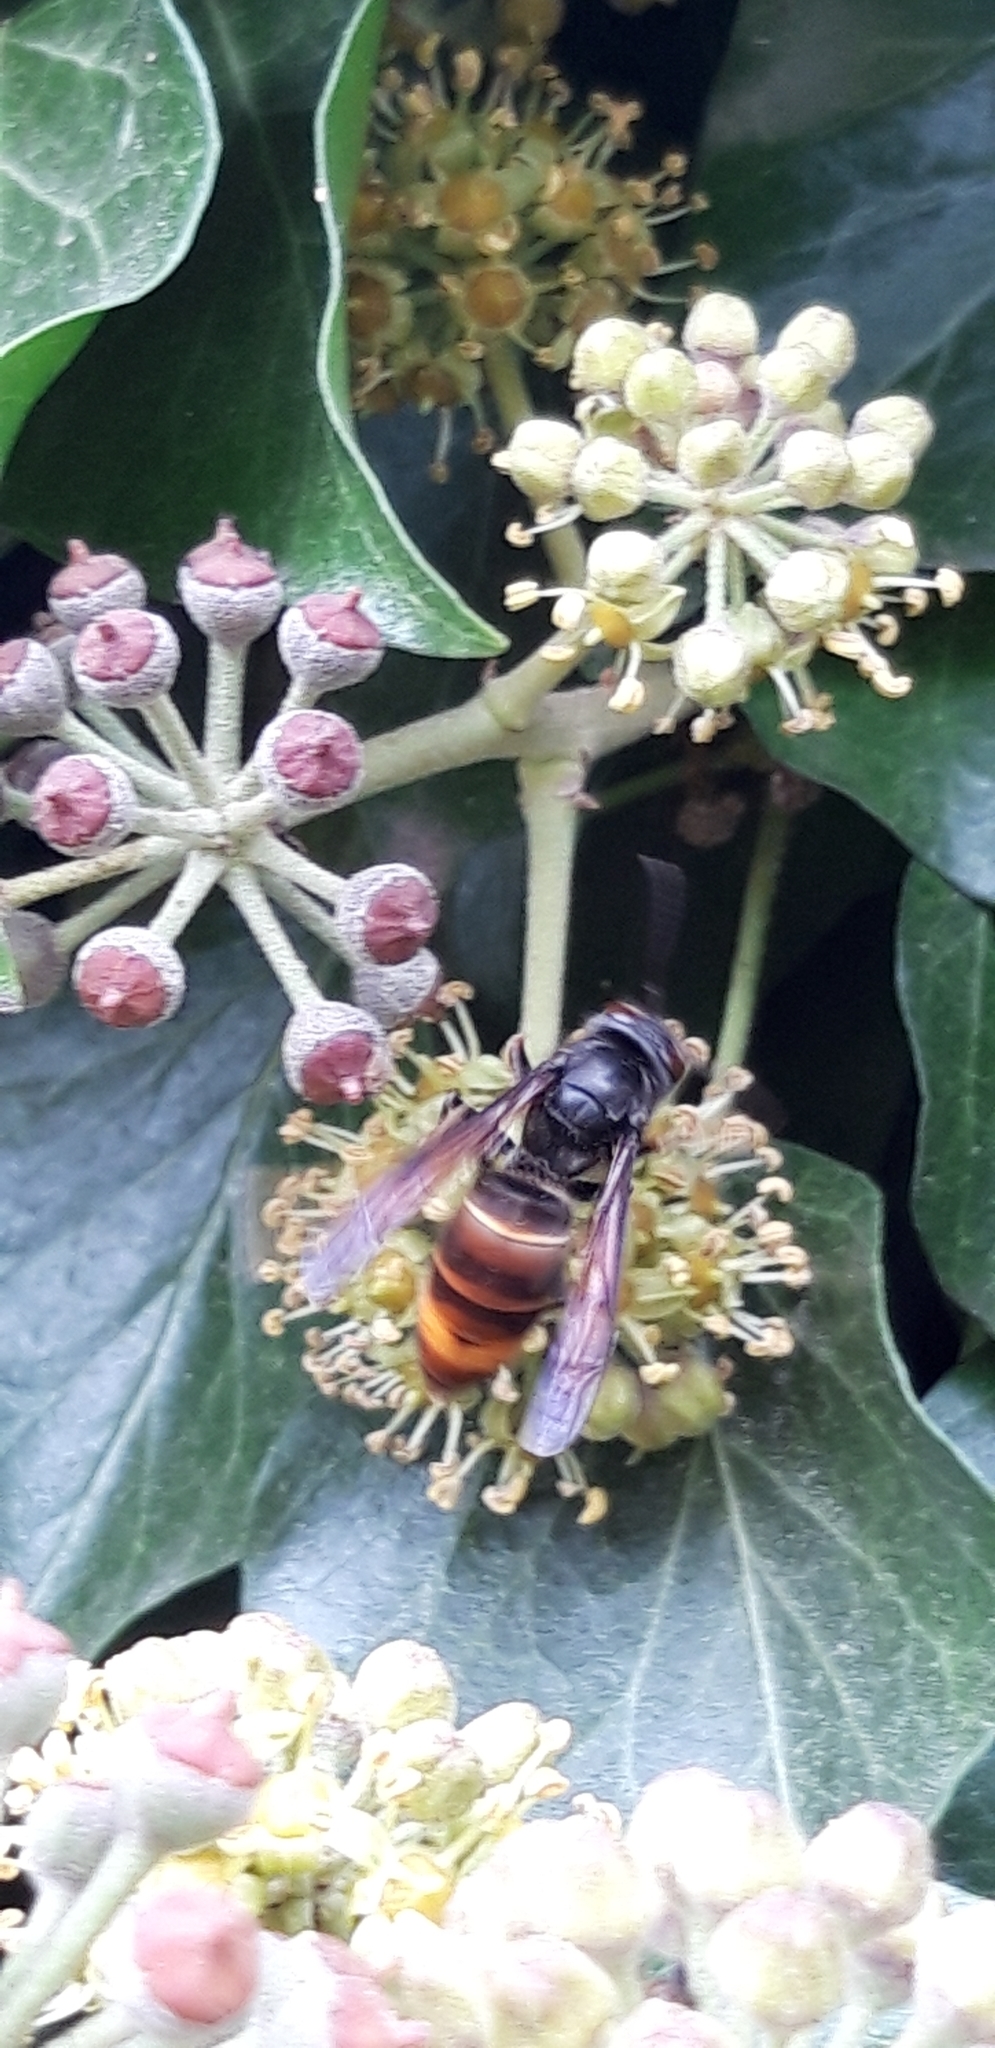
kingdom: Animalia
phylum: Arthropoda
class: Insecta
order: Hymenoptera
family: Vespidae
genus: Vespa
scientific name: Vespa velutina
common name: Asian hornet
